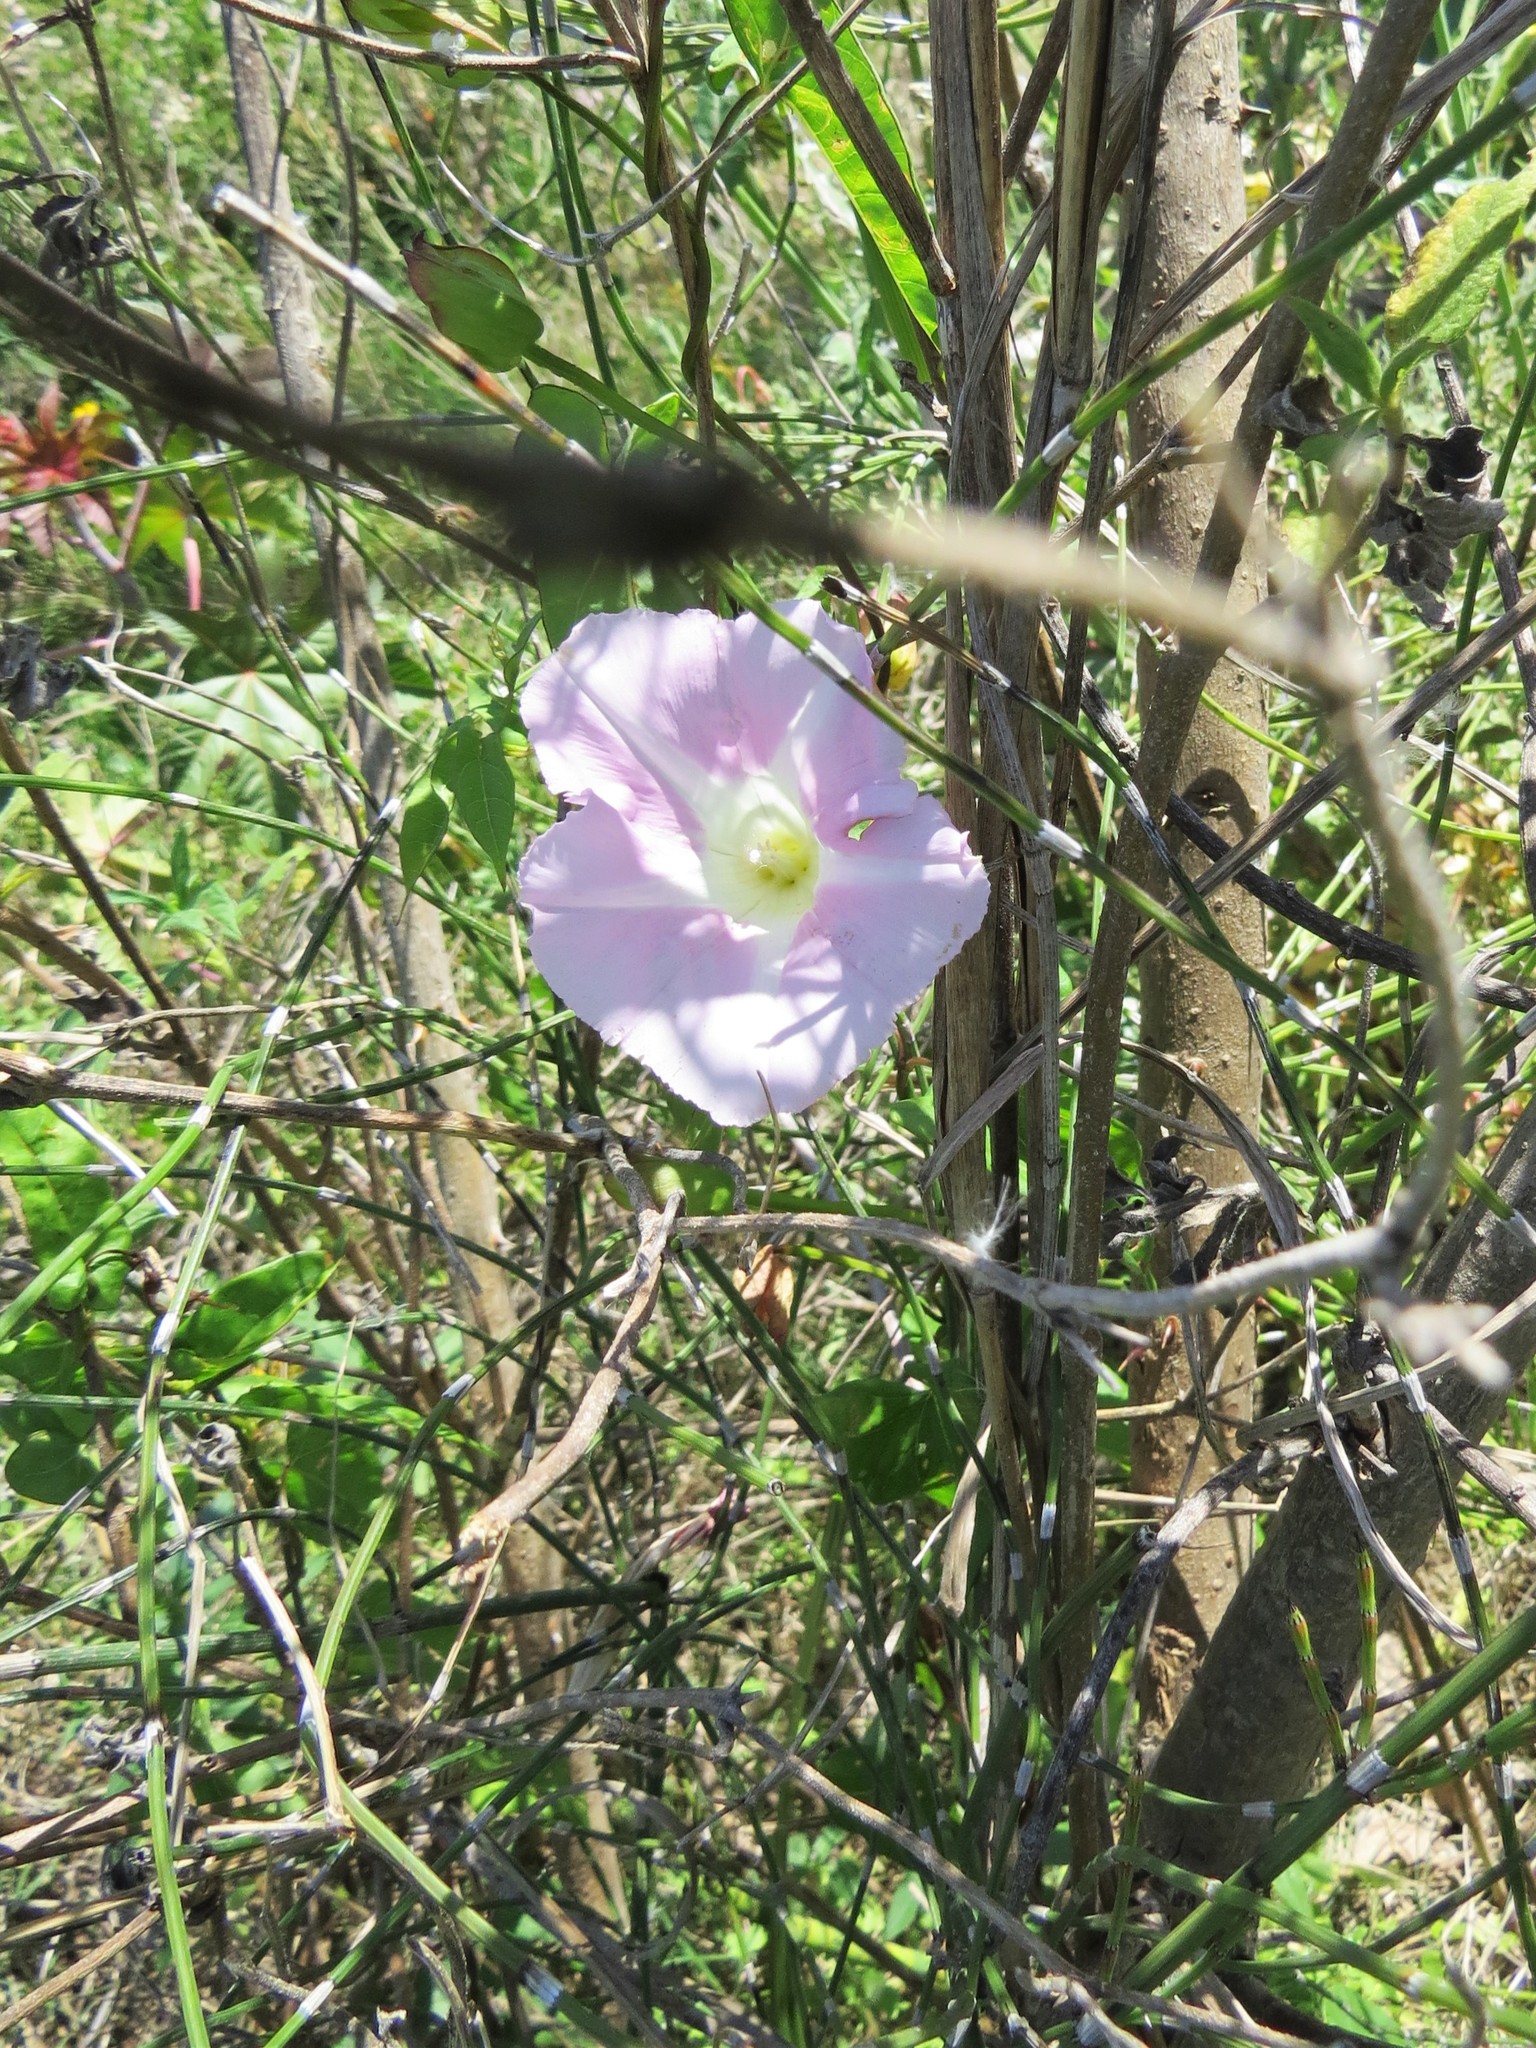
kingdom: Plantae
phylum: Tracheophyta
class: Magnoliopsida
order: Solanales
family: Convolvulaceae
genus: Calystegia
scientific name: Calystegia sepium
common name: Hedge bindweed
